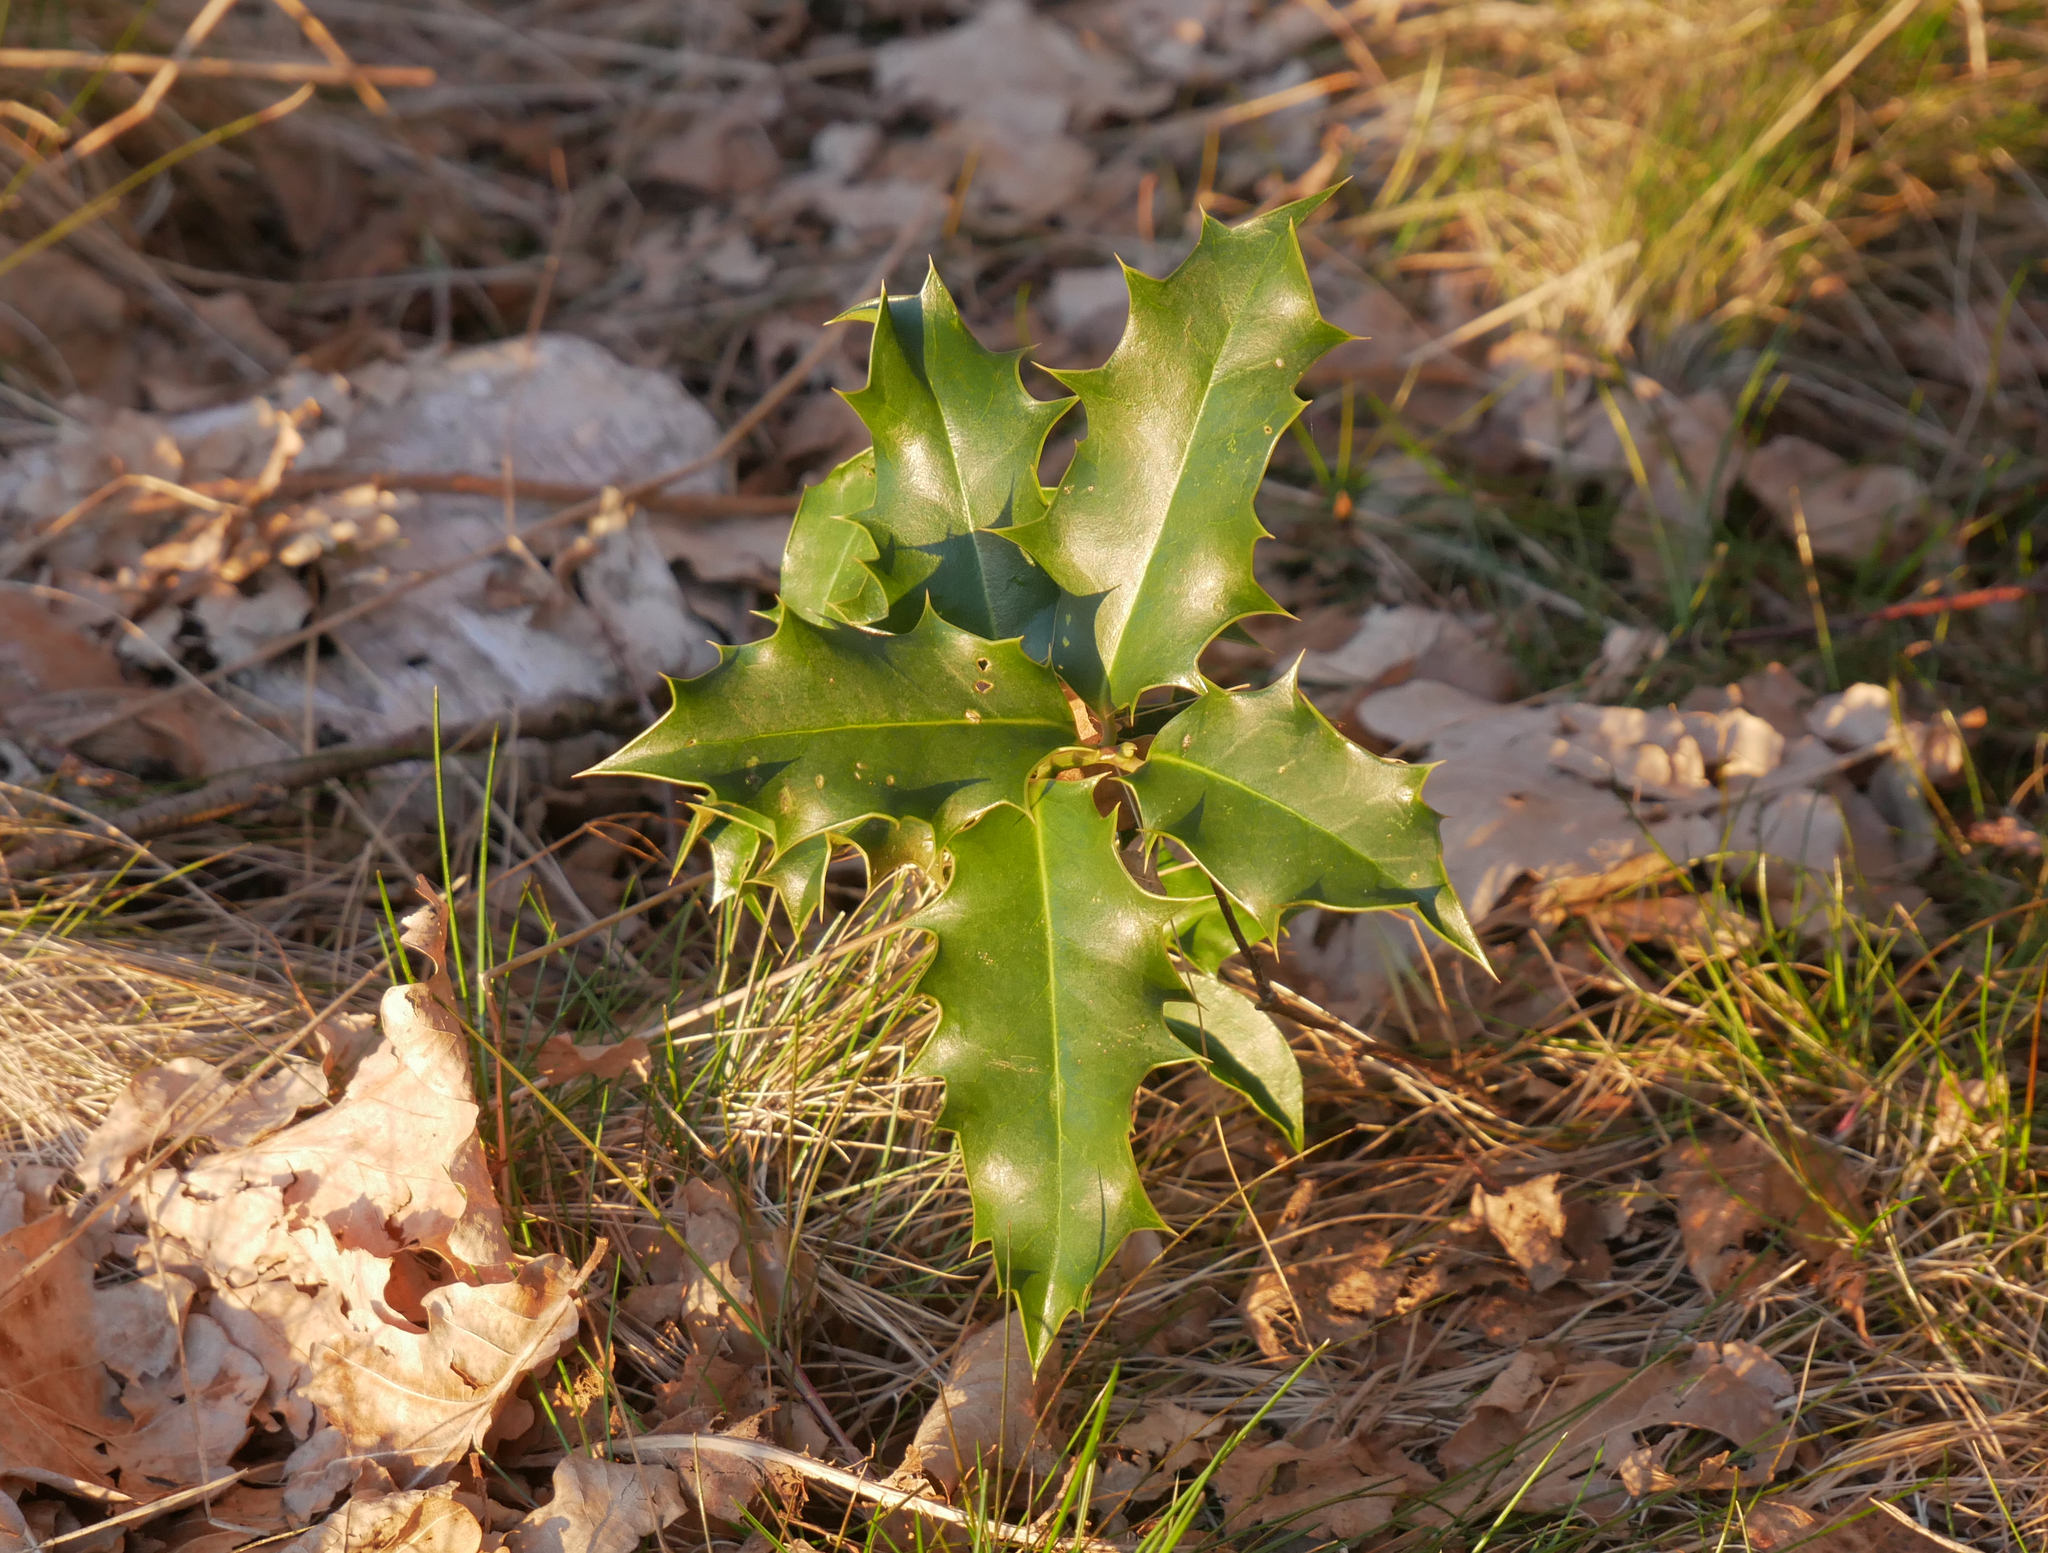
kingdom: Plantae
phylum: Tracheophyta
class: Magnoliopsida
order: Aquifoliales
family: Aquifoliaceae
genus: Ilex
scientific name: Ilex aquifolium
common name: English holly
